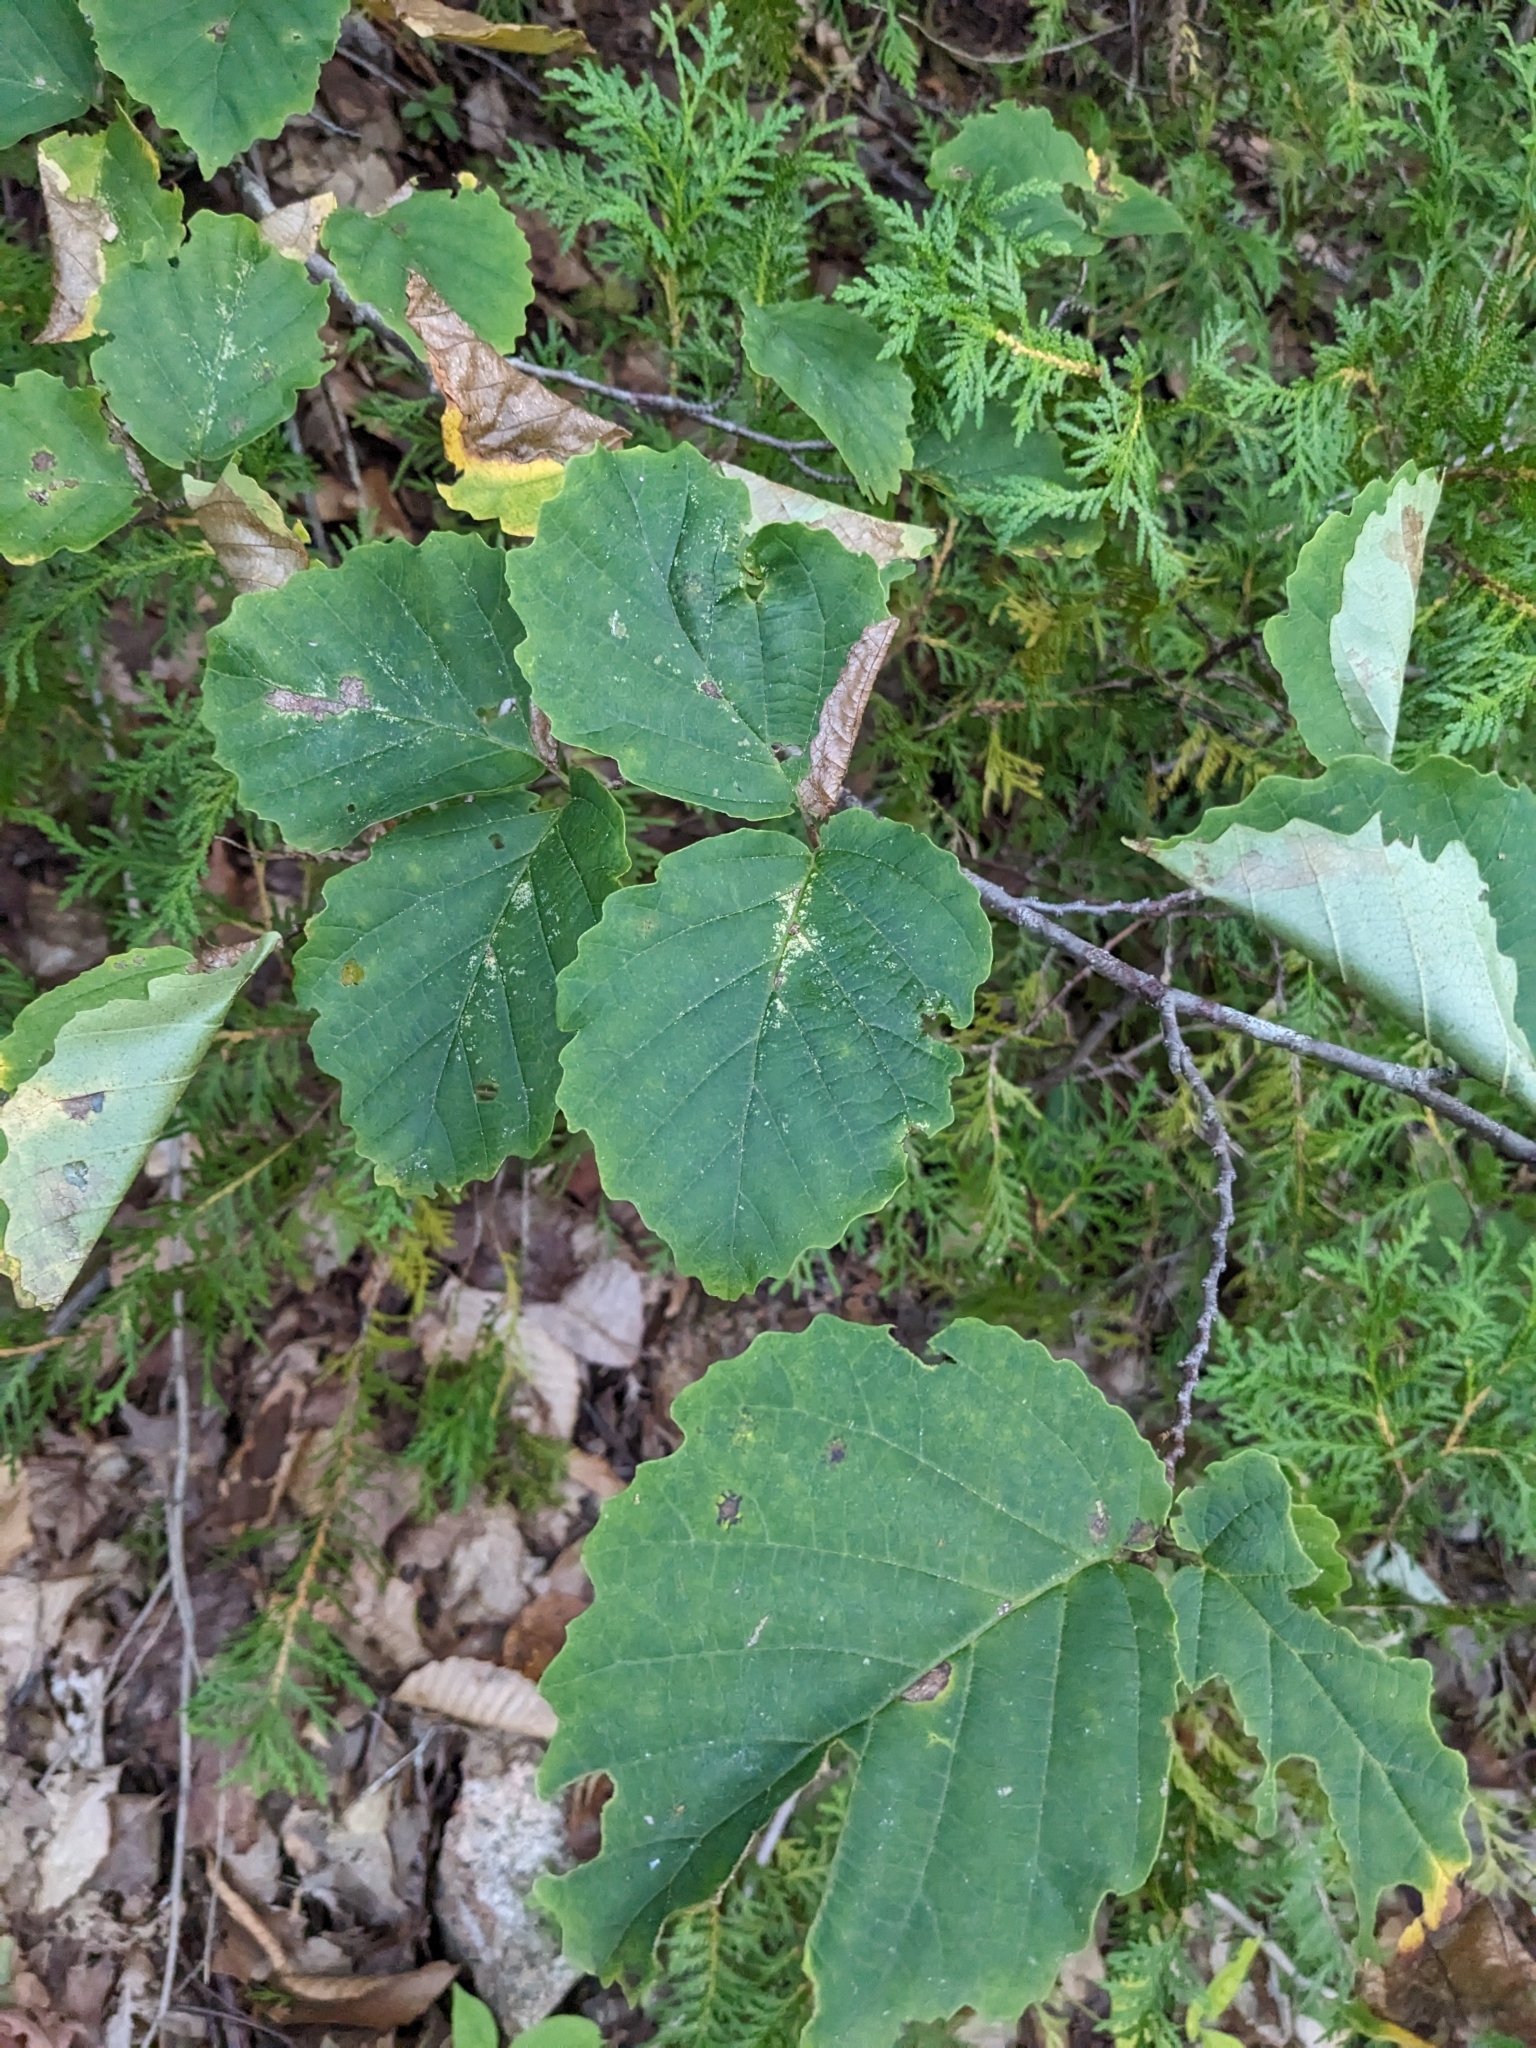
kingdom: Plantae
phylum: Tracheophyta
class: Magnoliopsida
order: Saxifragales
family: Hamamelidaceae
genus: Hamamelis
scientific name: Hamamelis virginiana
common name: Witch-hazel
